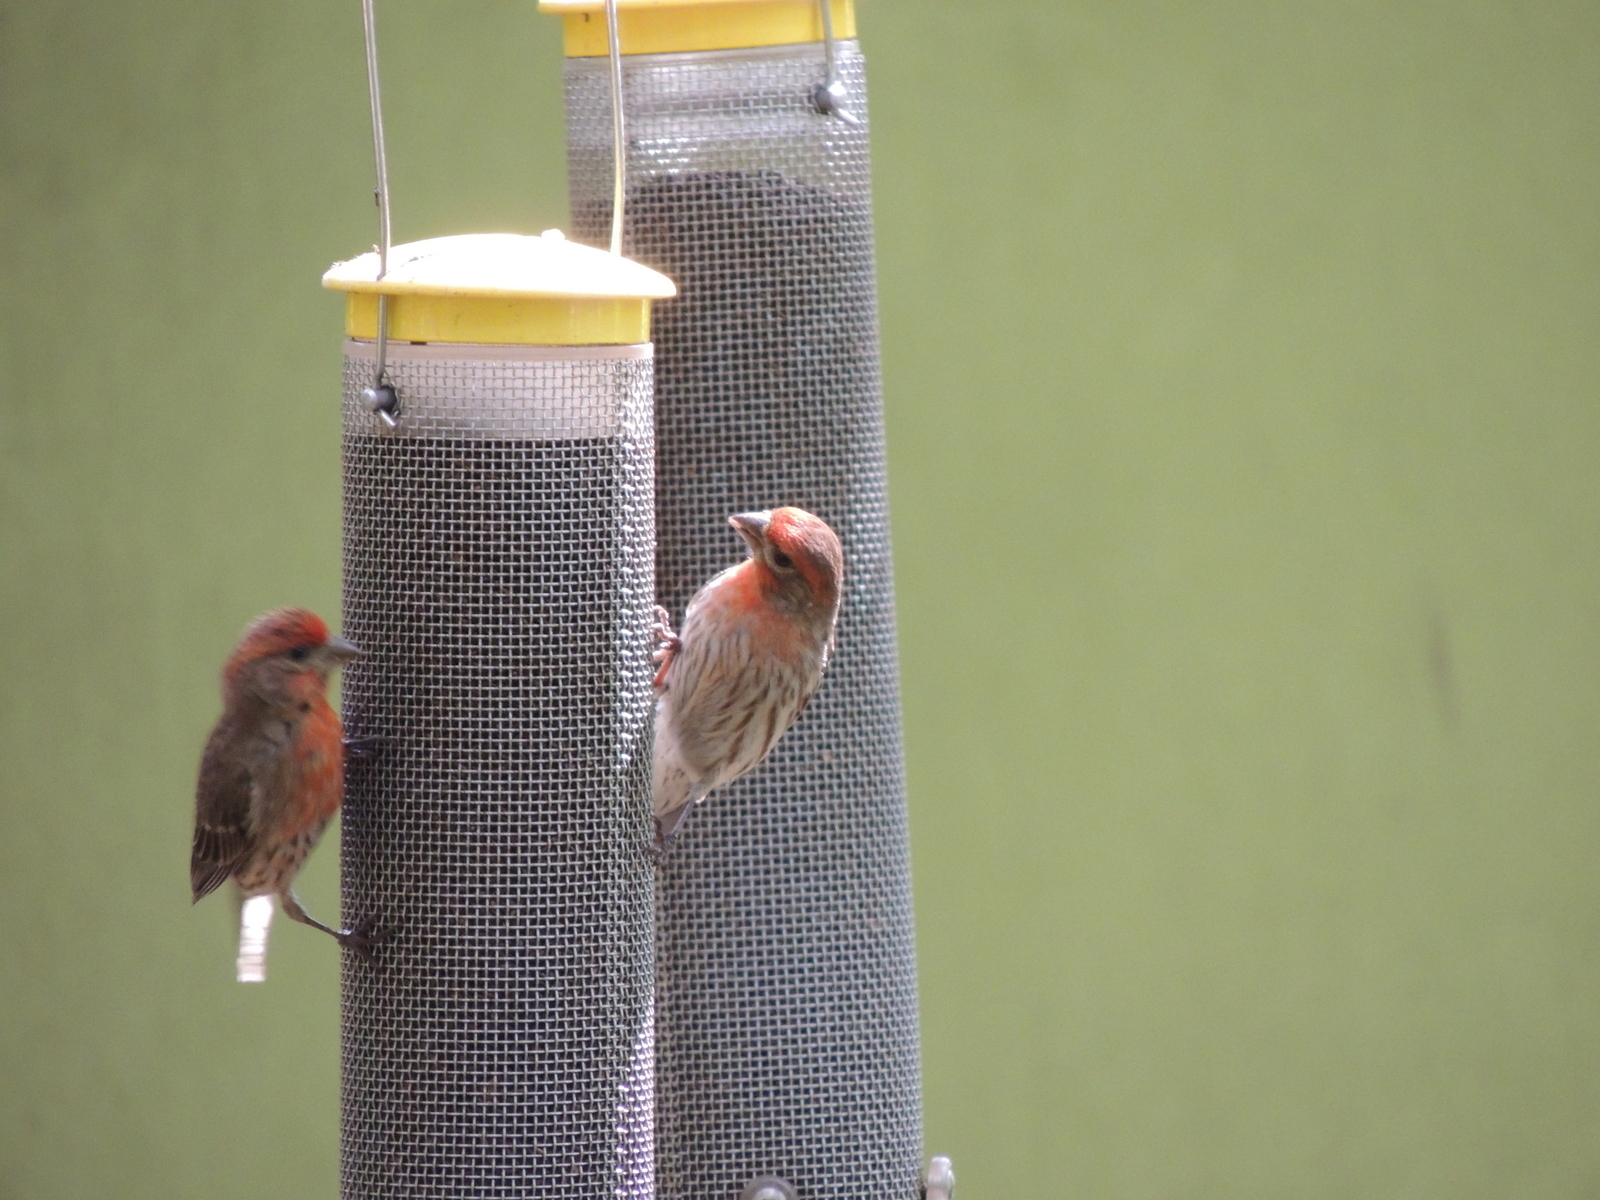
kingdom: Animalia
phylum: Chordata
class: Aves
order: Passeriformes
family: Fringillidae
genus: Haemorhous
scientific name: Haemorhous mexicanus
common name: House finch
